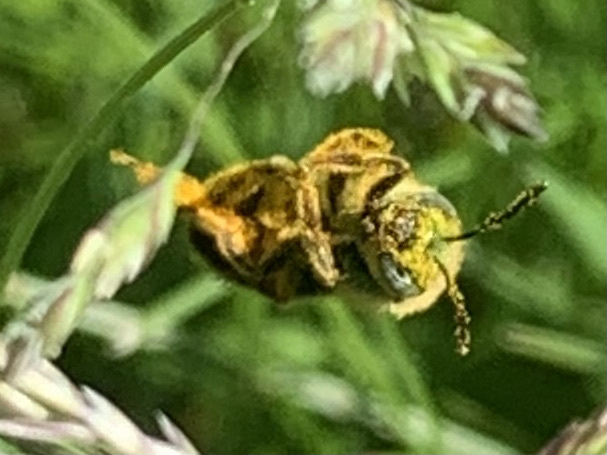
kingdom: Animalia
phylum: Arthropoda
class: Insecta
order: Hymenoptera
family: Halictidae
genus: Agapostemon
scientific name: Agapostemon virescens
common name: Bicolored striped sweat bee
